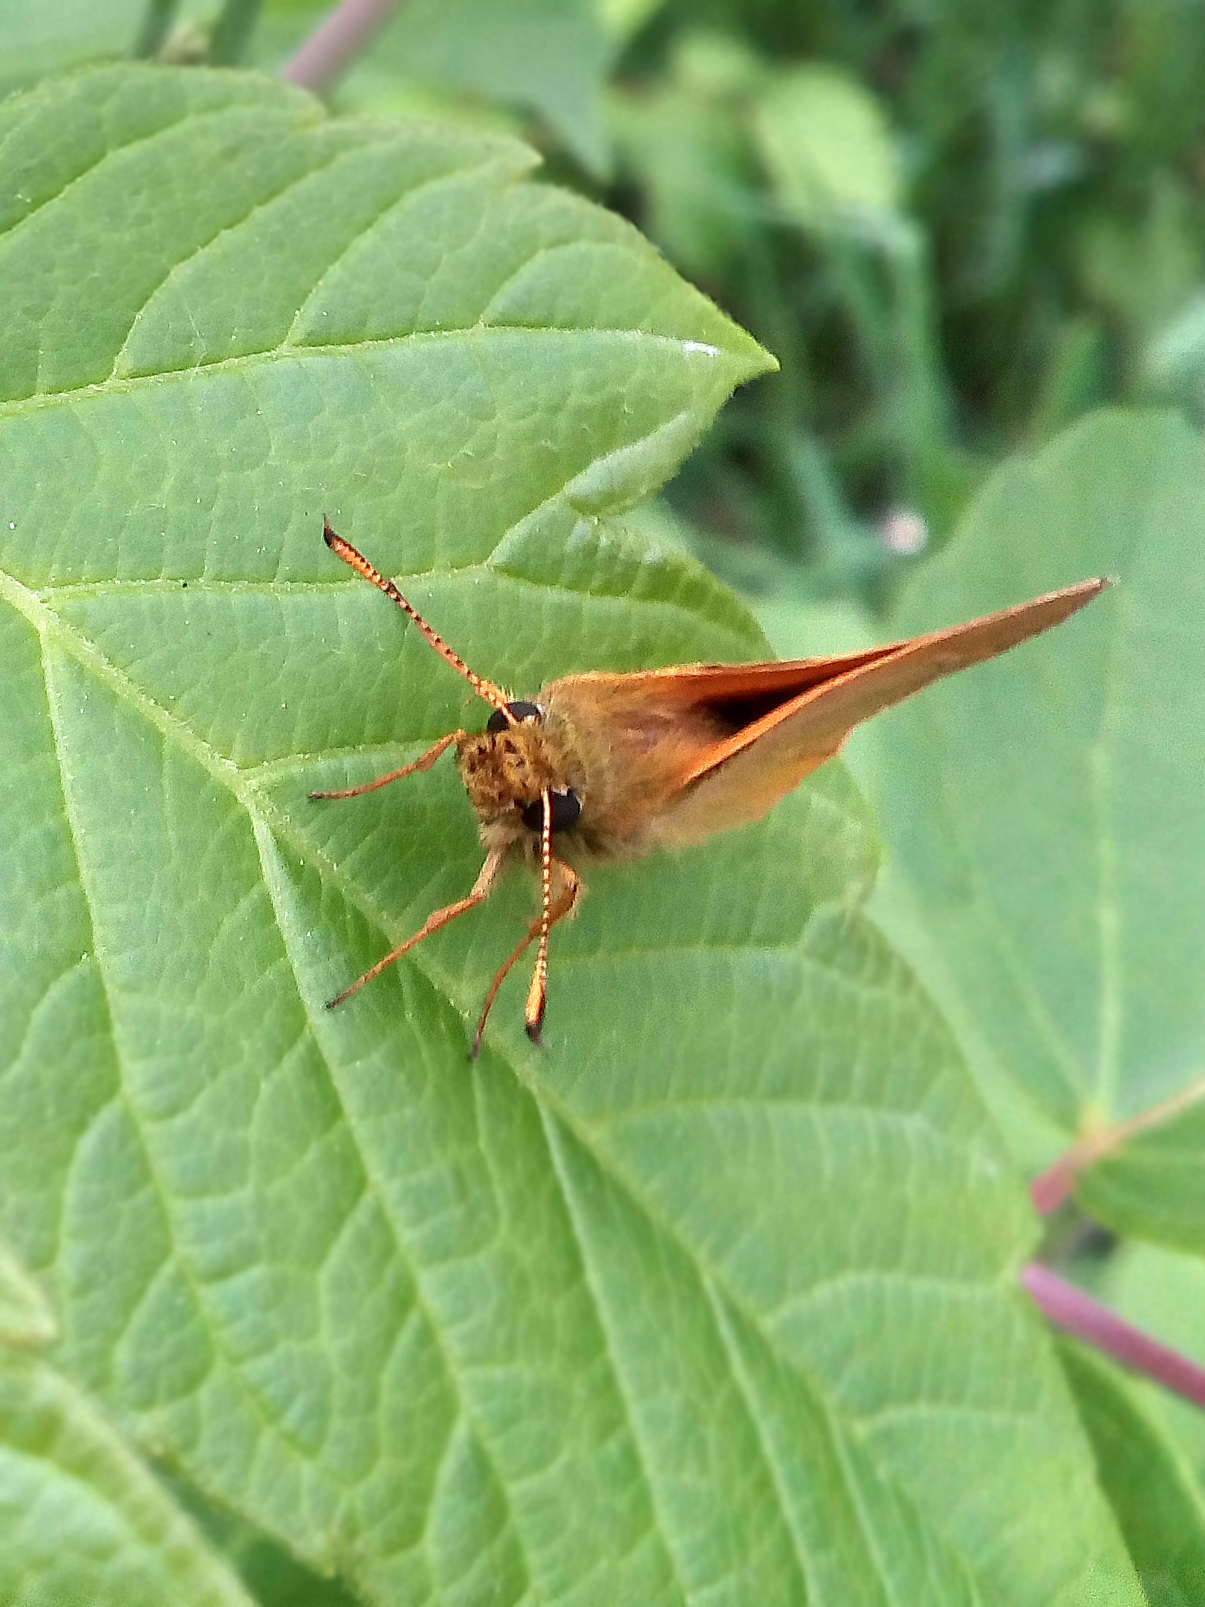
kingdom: Animalia
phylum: Arthropoda
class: Insecta
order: Lepidoptera
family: Hesperiidae
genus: Ochlodes
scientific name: Ochlodes venata
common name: Large skipper
